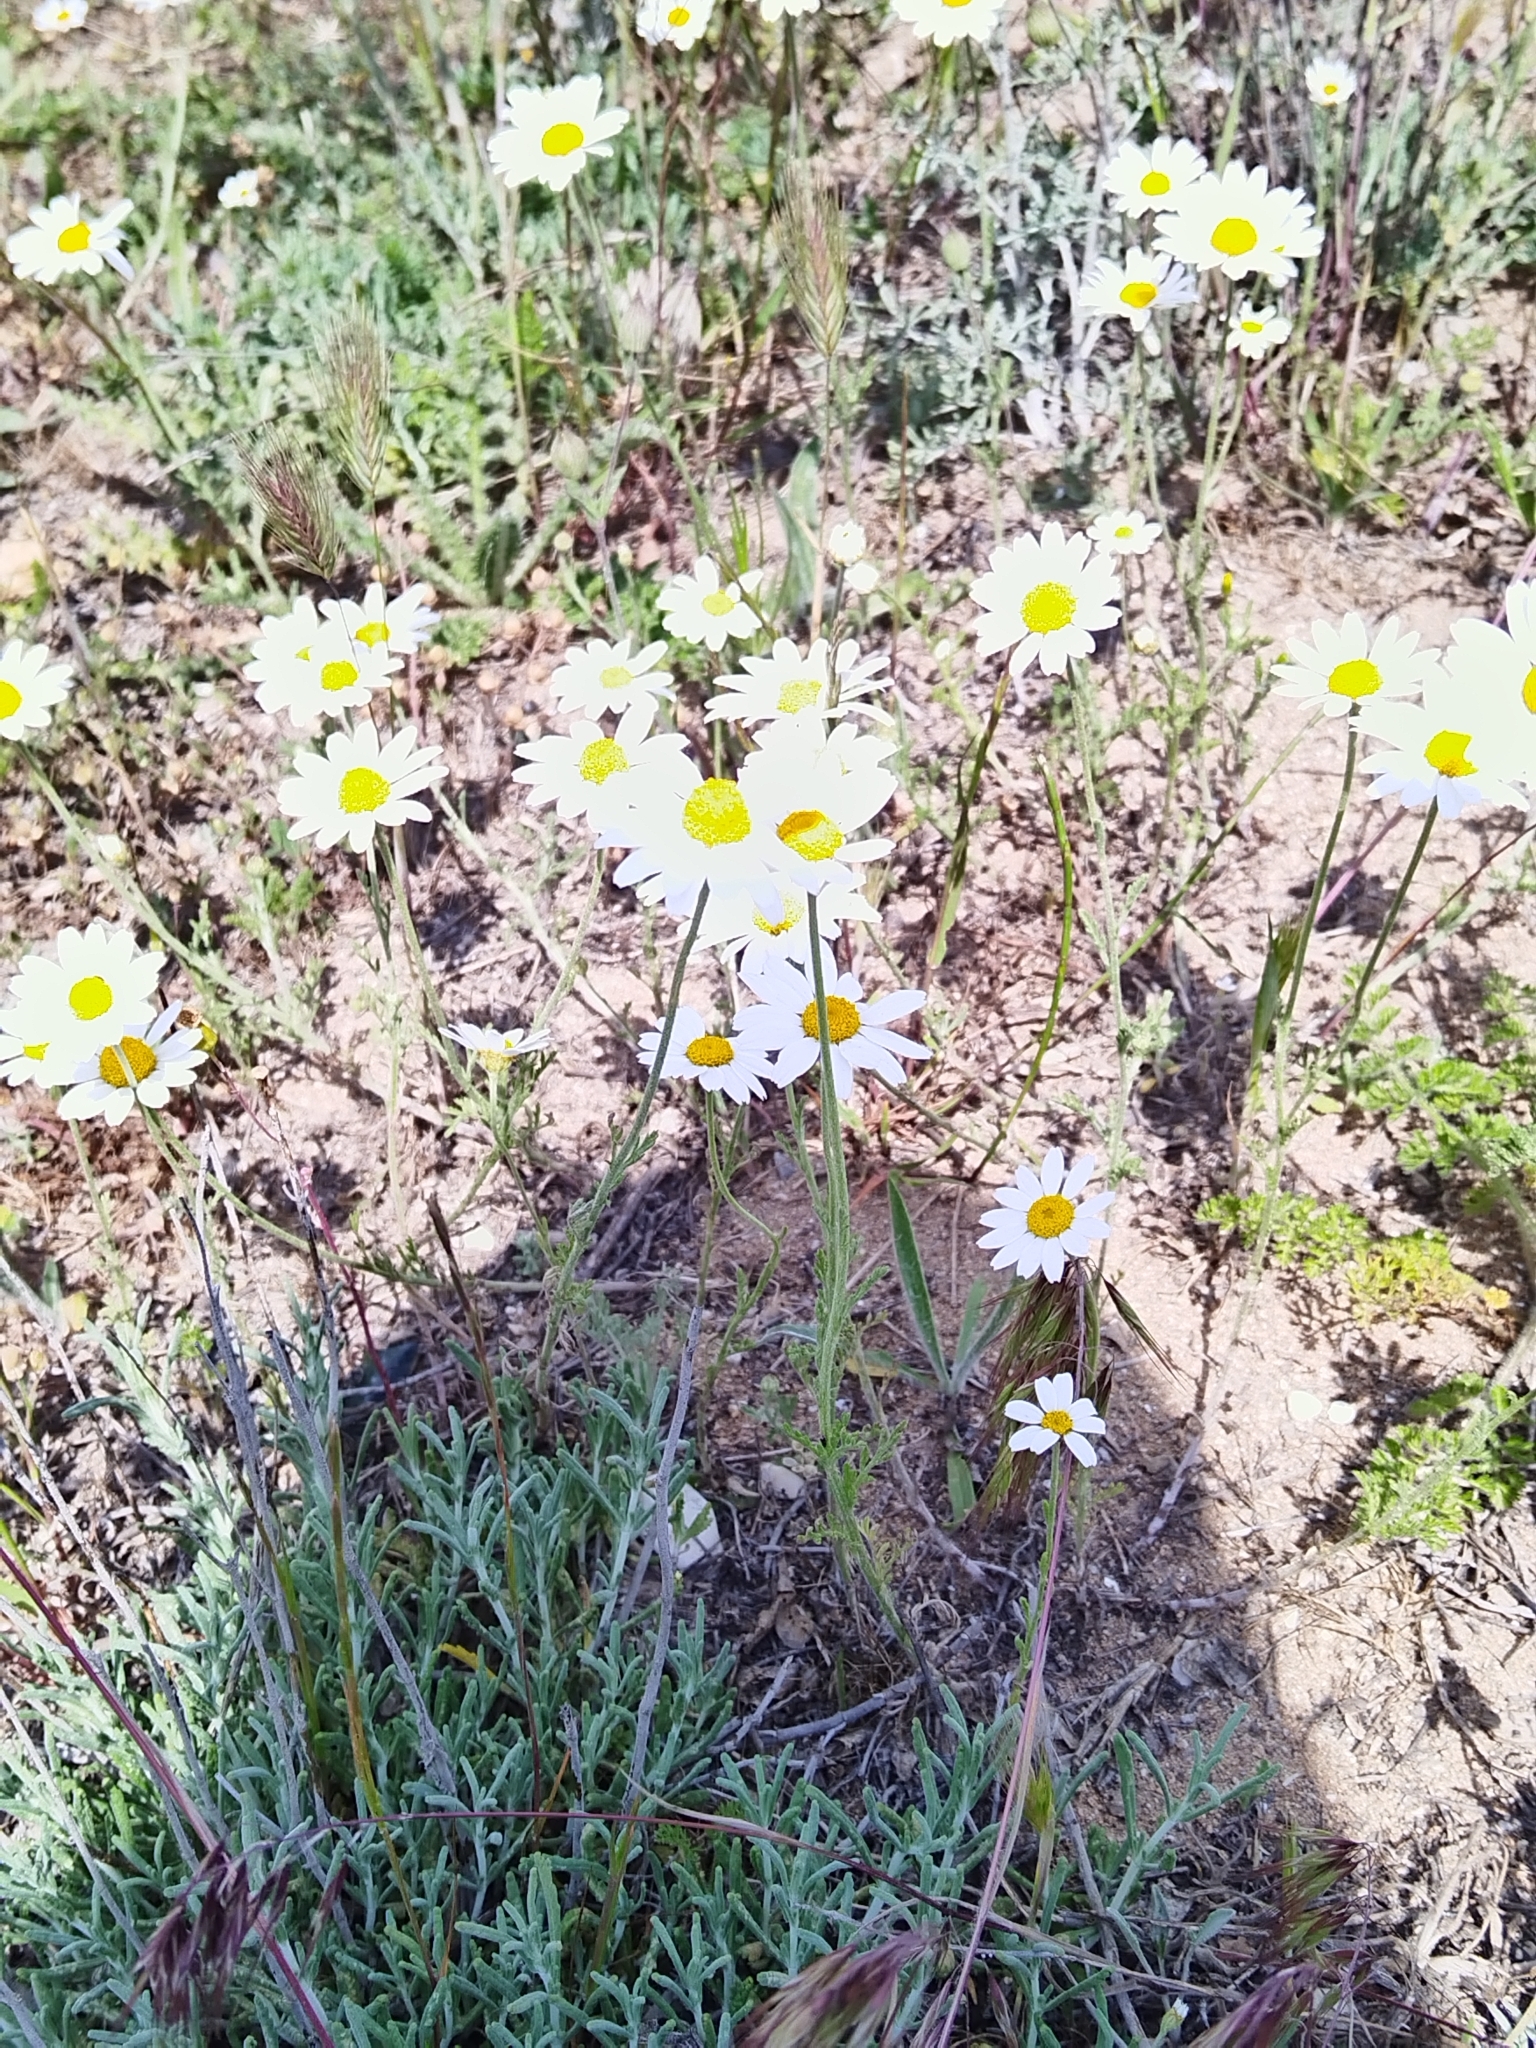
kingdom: Plantae
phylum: Tracheophyta
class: Magnoliopsida
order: Asterales
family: Asteraceae
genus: Anthemis
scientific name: Anthemis ruthenica
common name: Eastern chamomile
